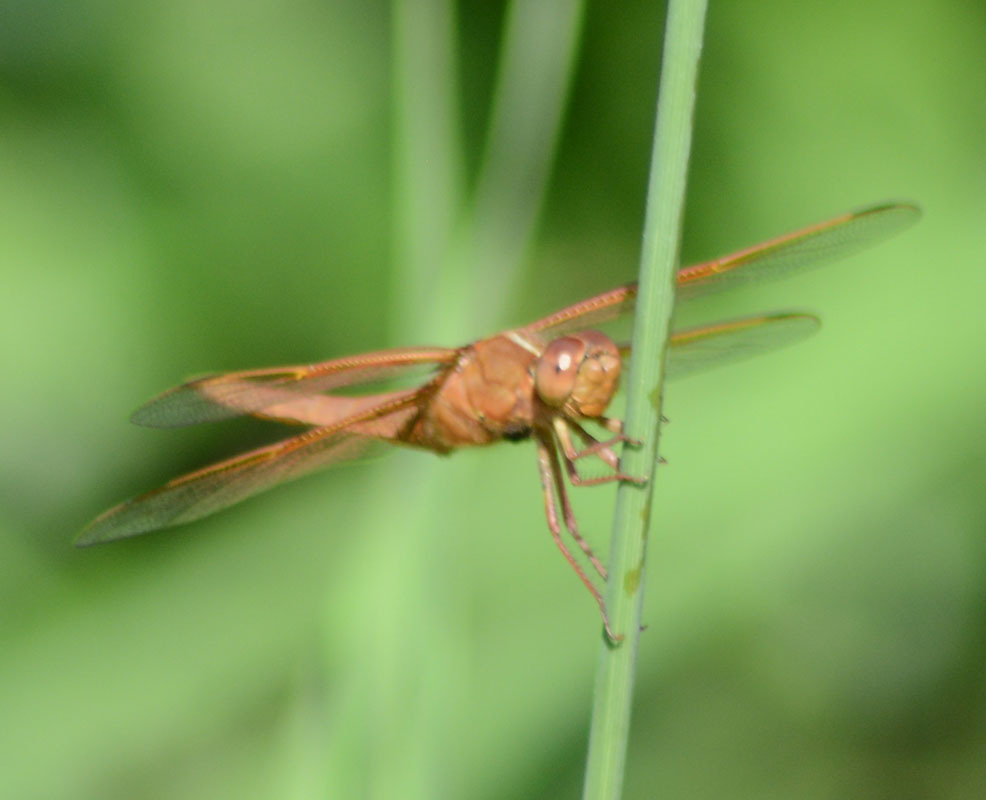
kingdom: Animalia
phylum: Arthropoda
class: Insecta
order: Odonata
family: Libellulidae
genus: Libellula
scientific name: Libellula saturata
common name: Flame skimmer
